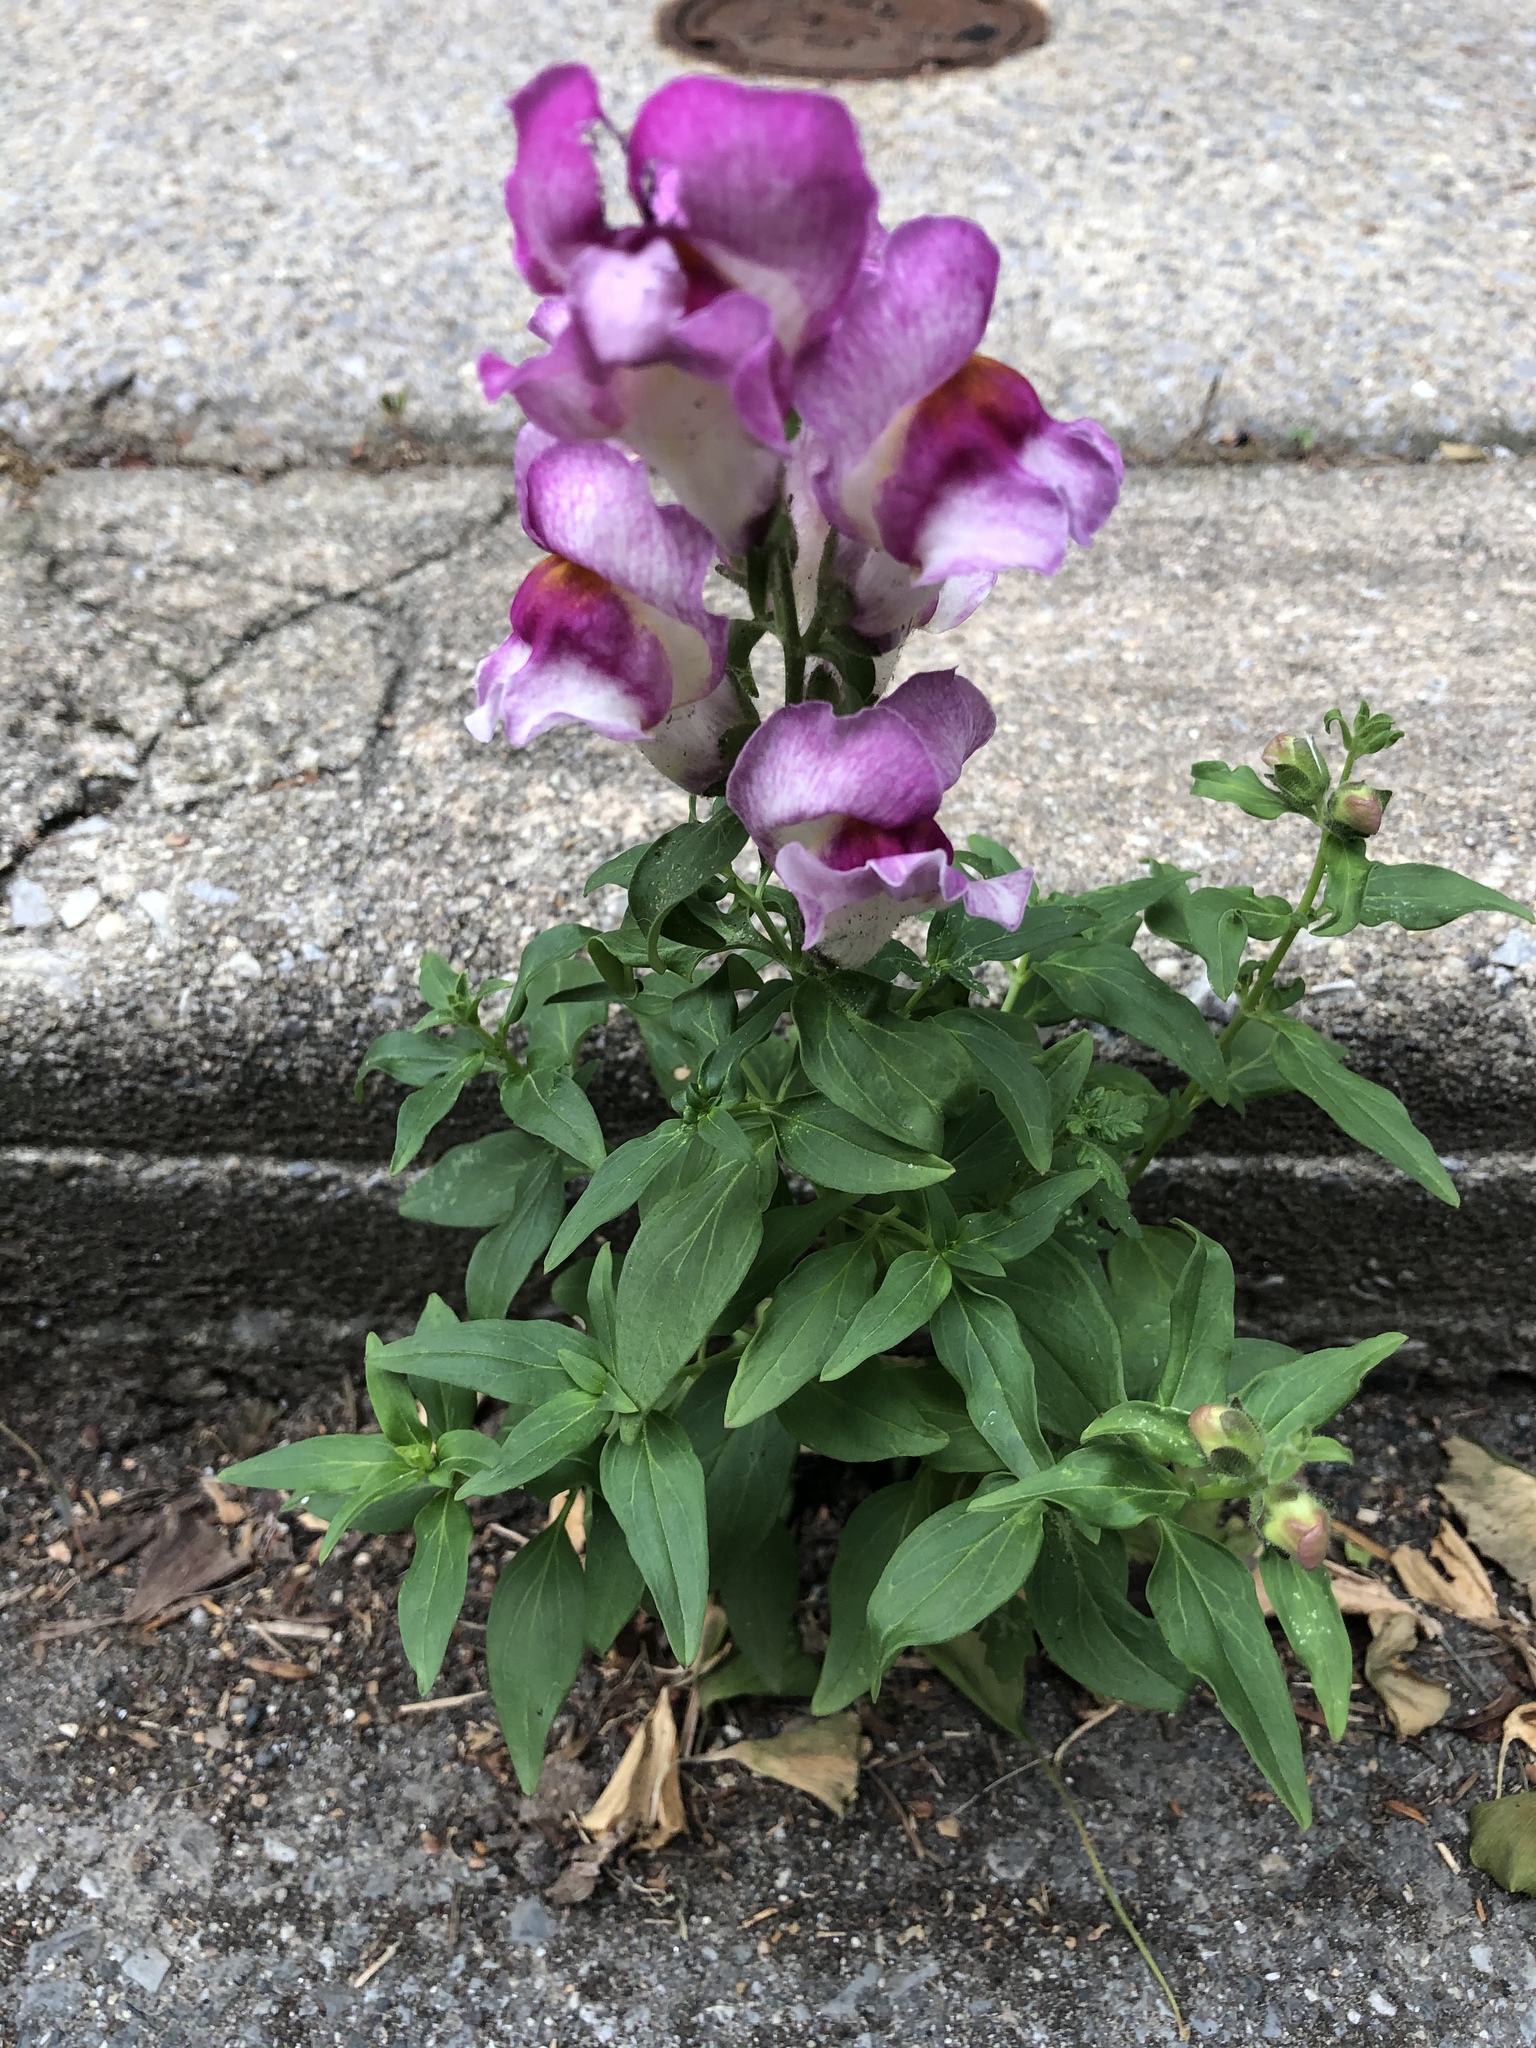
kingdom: Plantae
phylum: Tracheophyta
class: Magnoliopsida
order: Lamiales
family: Plantaginaceae
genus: Antirrhinum
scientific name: Antirrhinum majus
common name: Snapdragon
